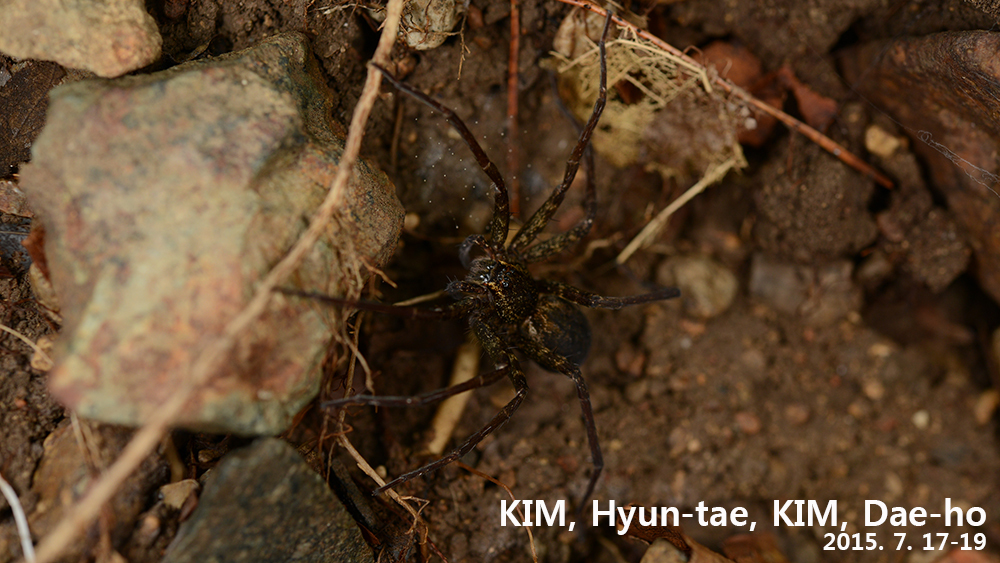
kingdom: Animalia
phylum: Arthropoda
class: Arachnida
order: Araneae
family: Pisauridae
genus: Dolomedes
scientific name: Dolomedes raptor
